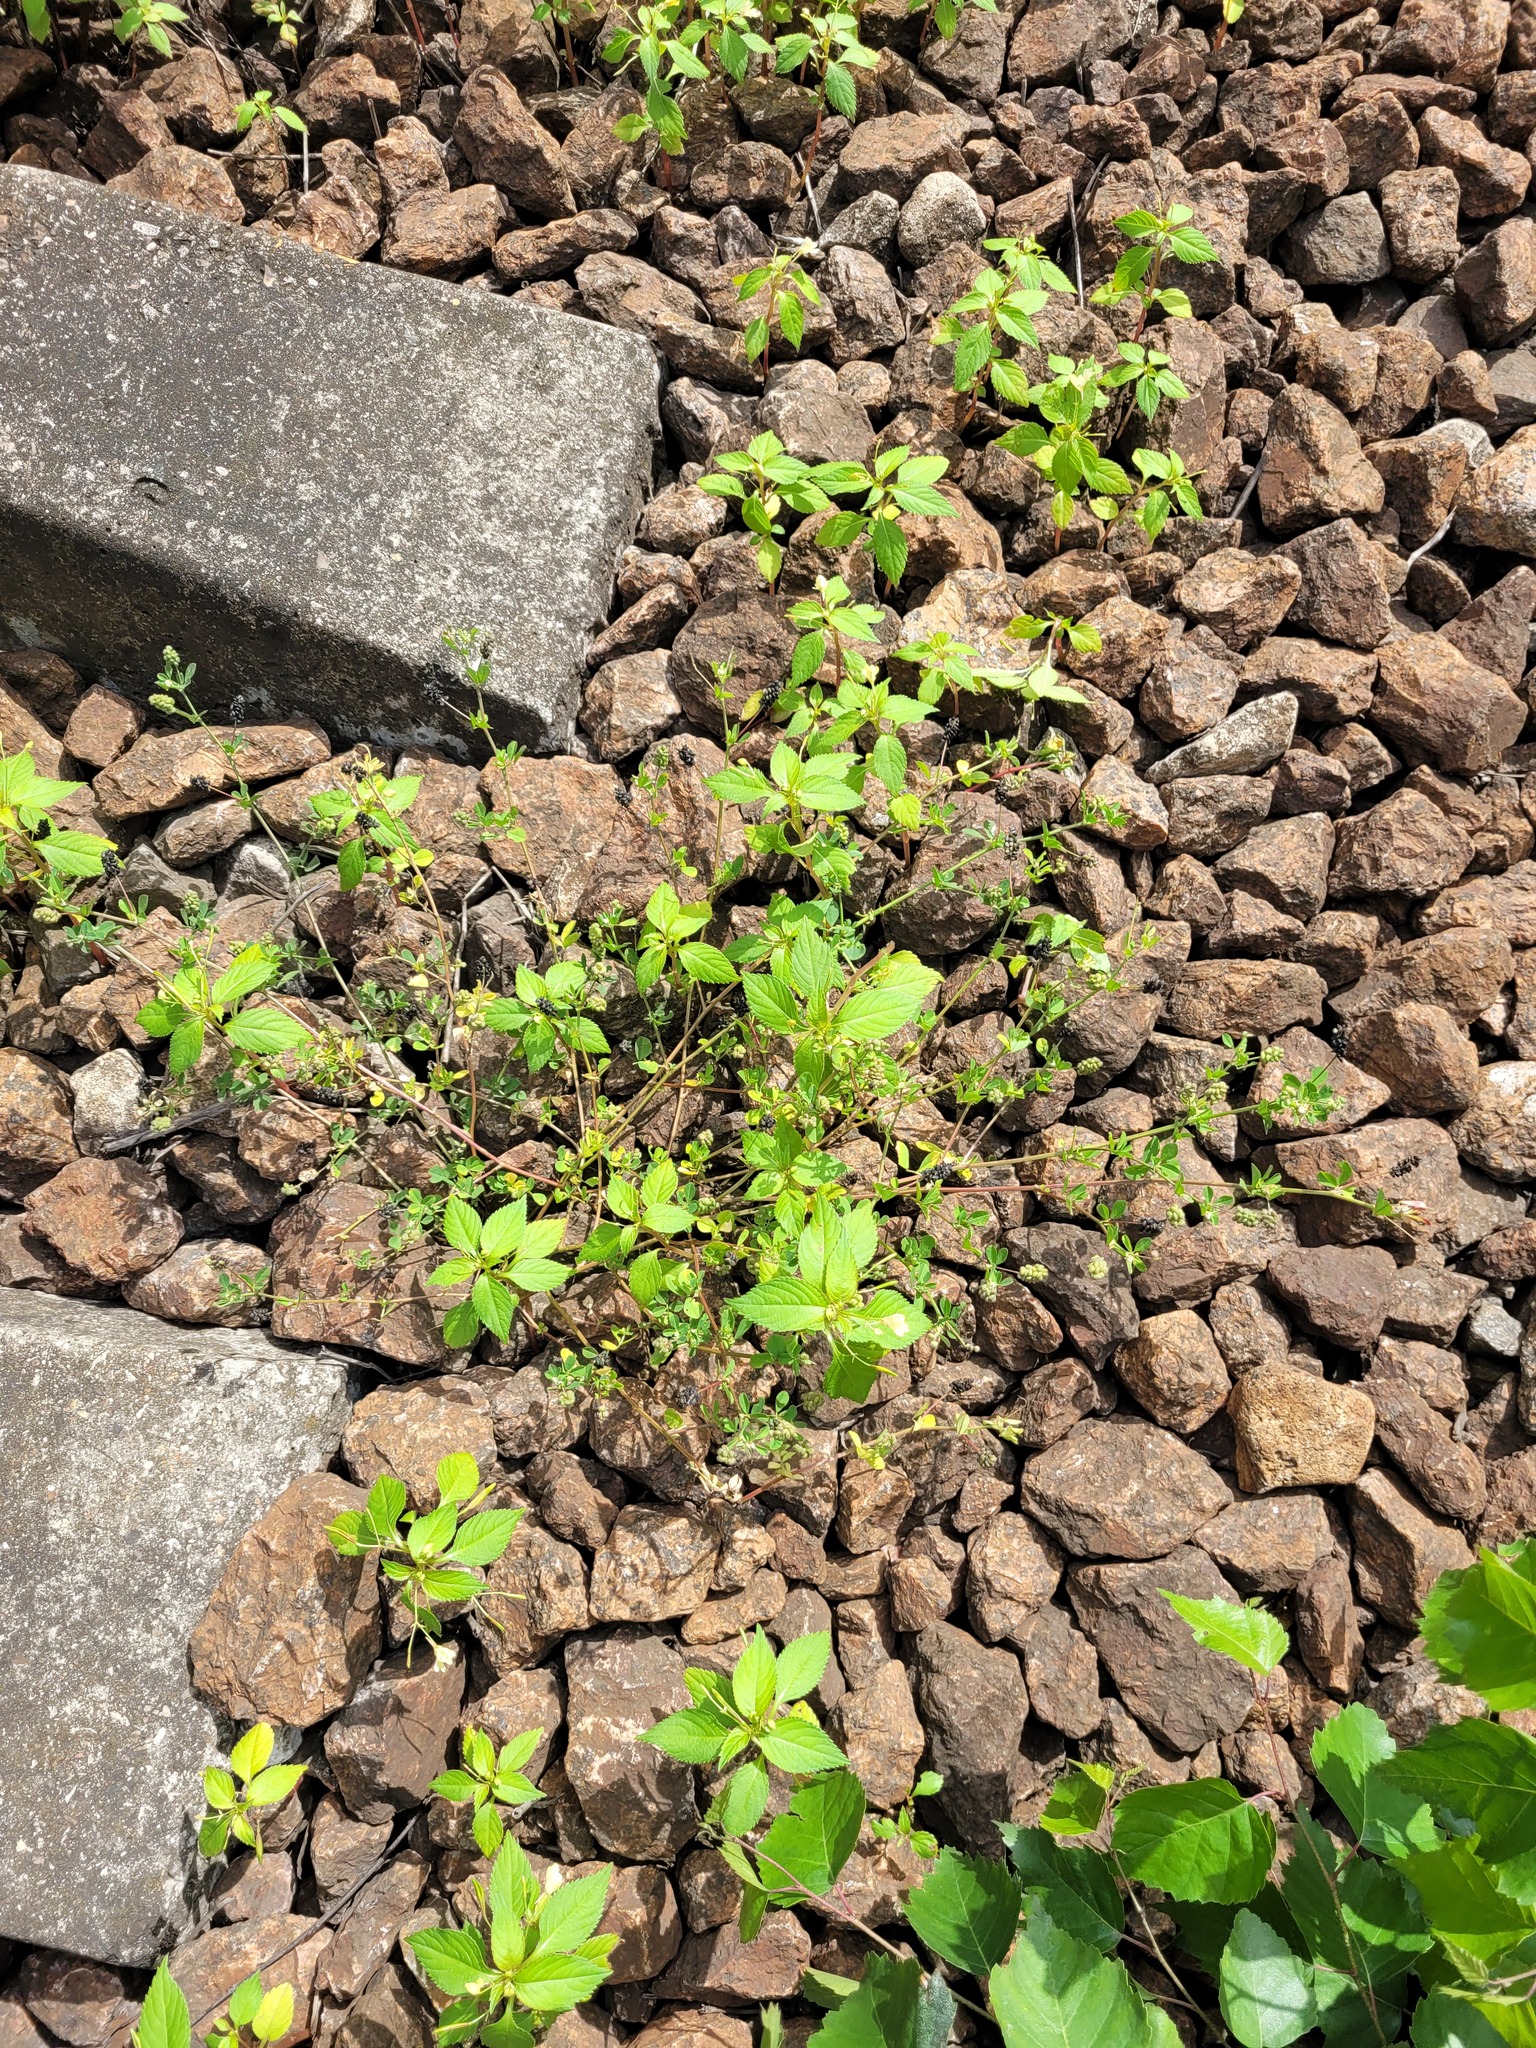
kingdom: Plantae
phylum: Tracheophyta
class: Magnoliopsida
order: Ericales
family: Balsaminaceae
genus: Impatiens
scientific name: Impatiens parviflora
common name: Small balsam
